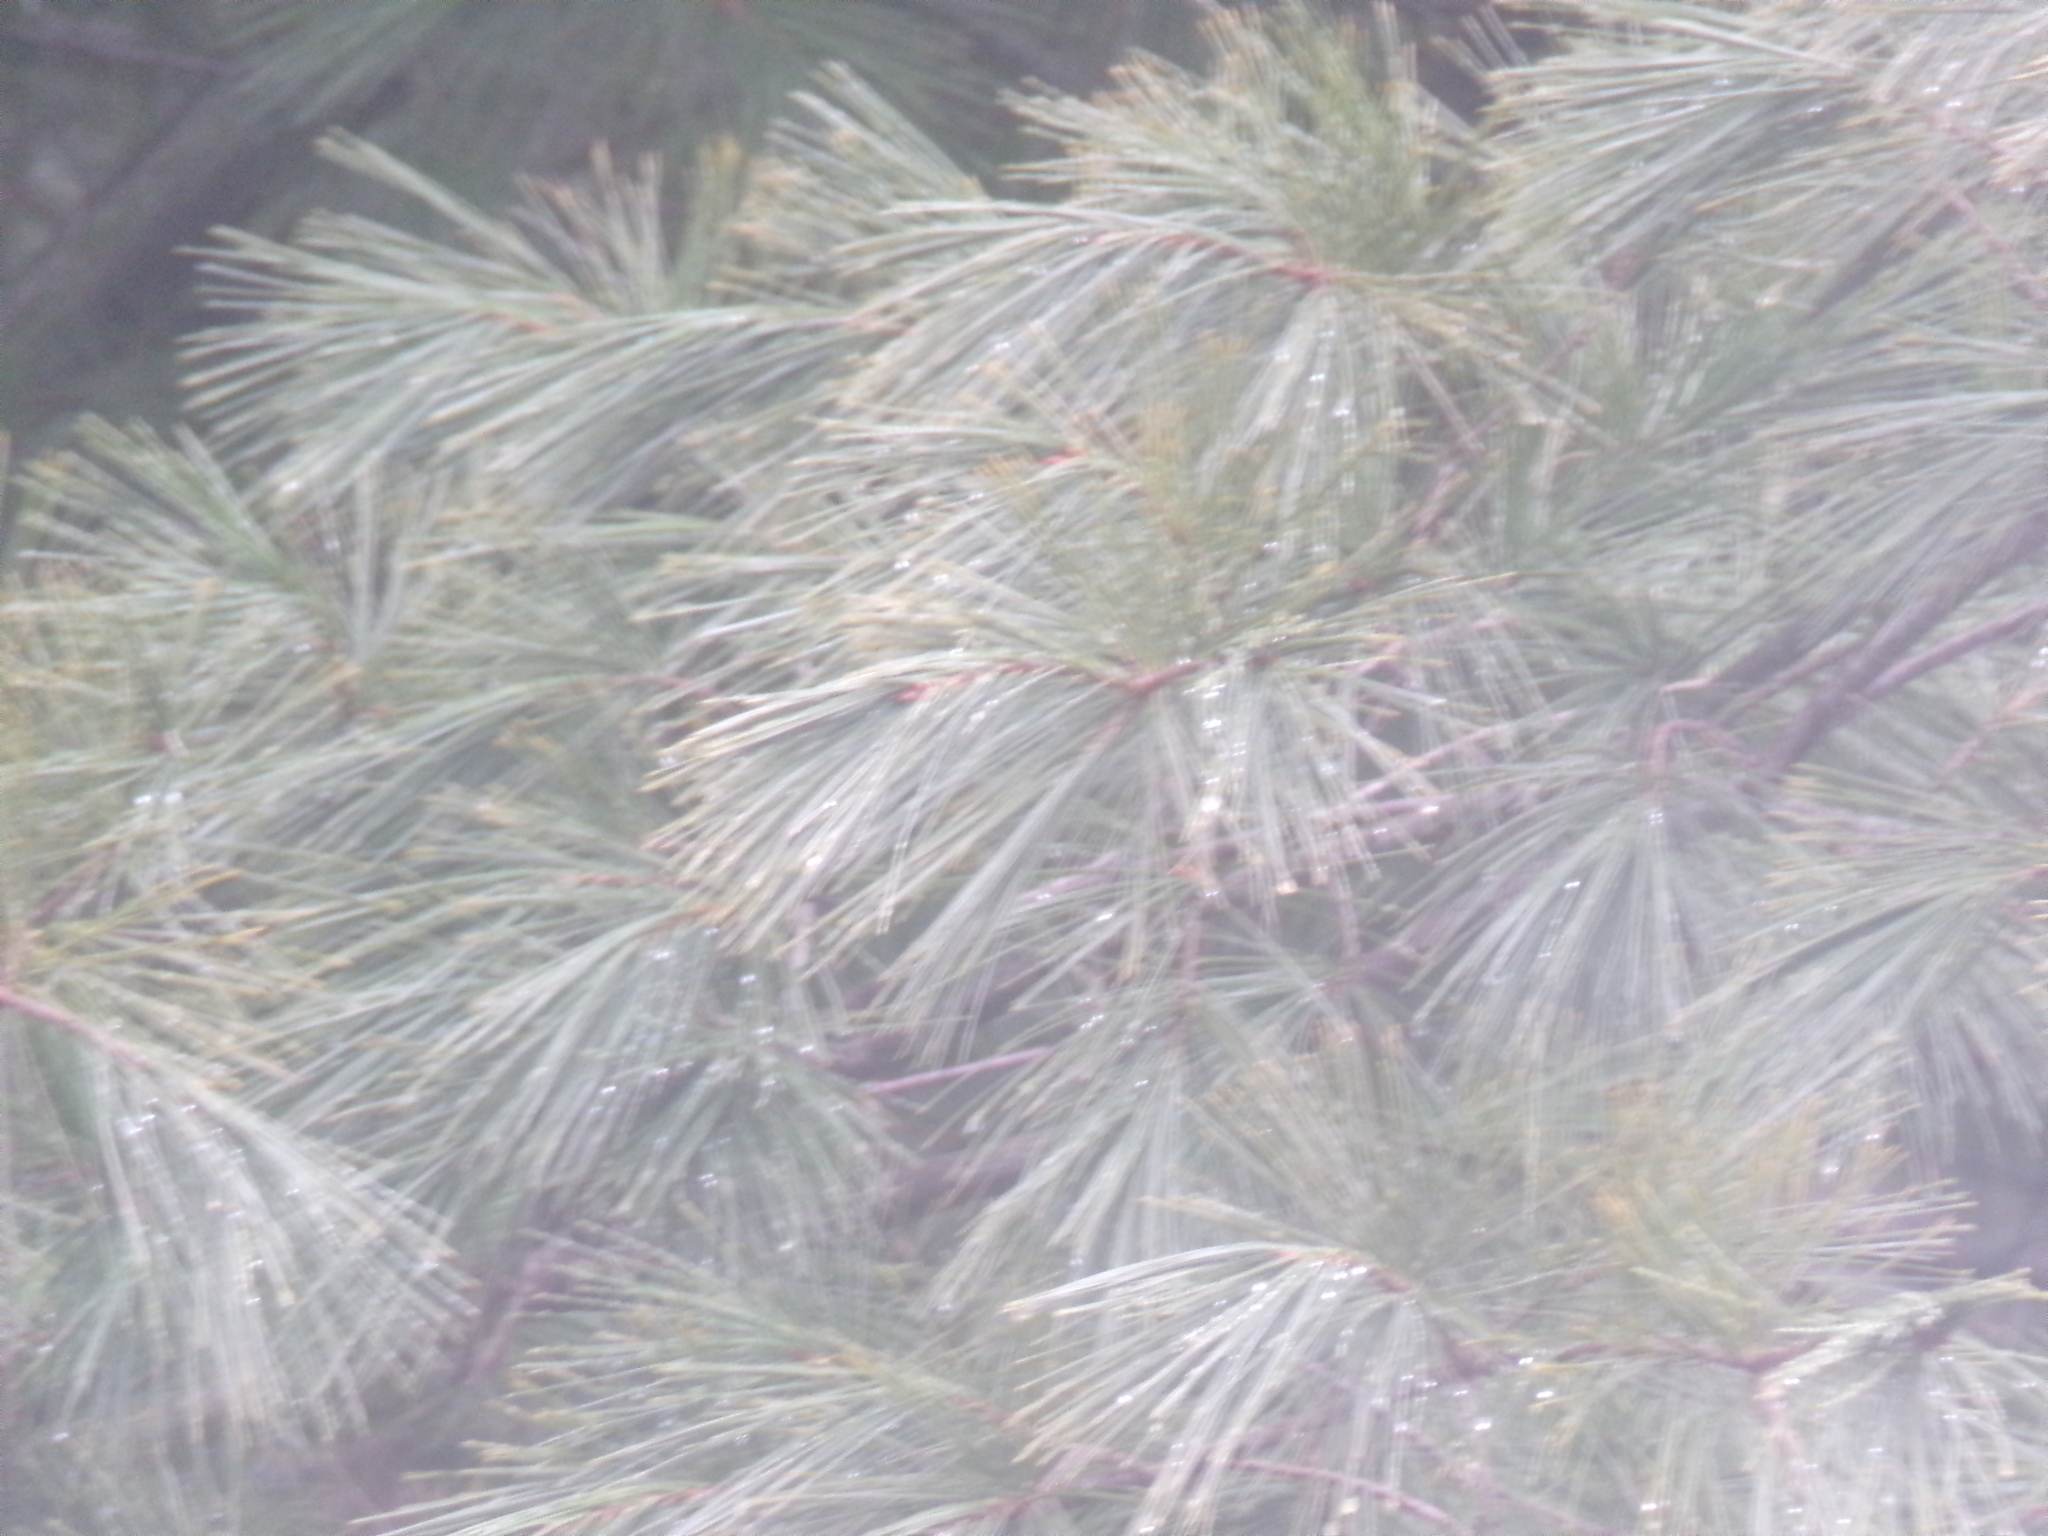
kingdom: Plantae
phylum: Tracheophyta
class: Pinopsida
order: Pinales
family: Pinaceae
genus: Pinus
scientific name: Pinus strobus
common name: Weymouth pine
